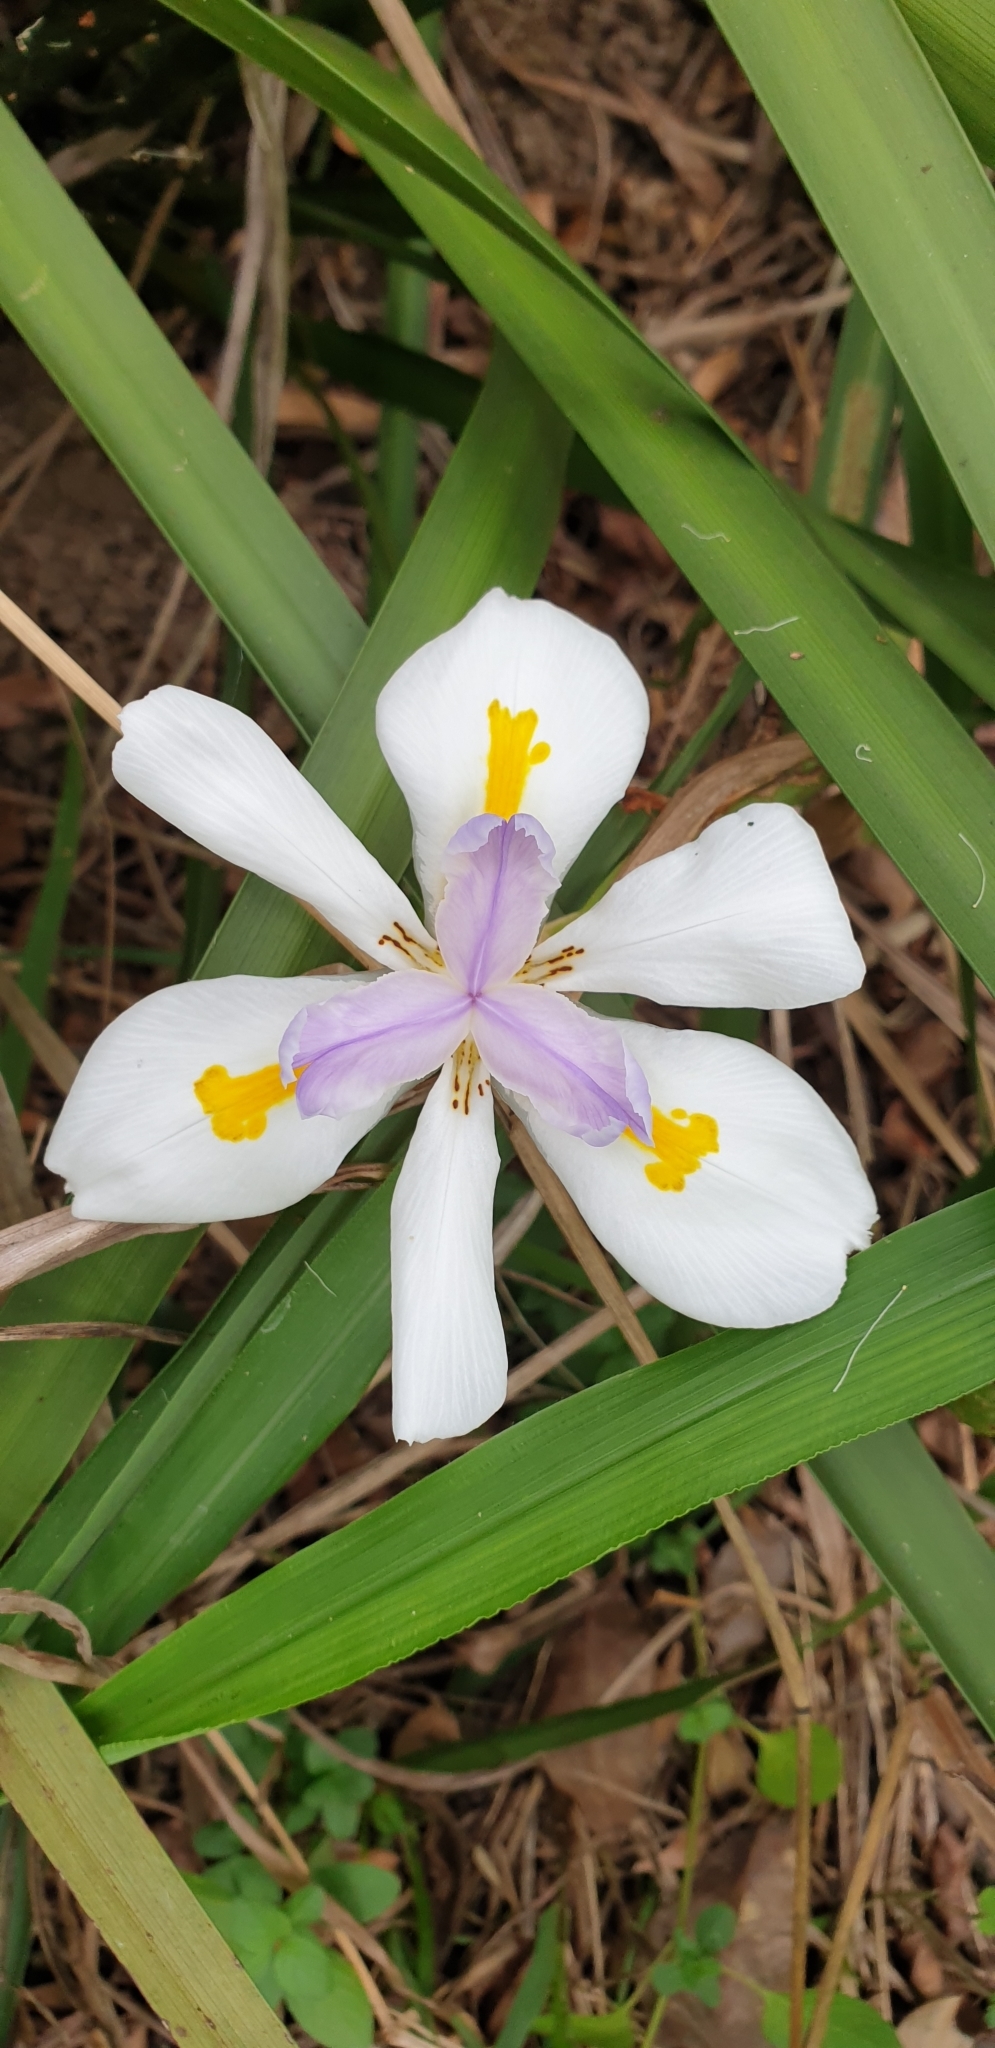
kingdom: Plantae
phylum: Tracheophyta
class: Liliopsida
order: Asparagales
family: Iridaceae
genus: Dietes
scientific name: Dietes grandiflora
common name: Wild iris
